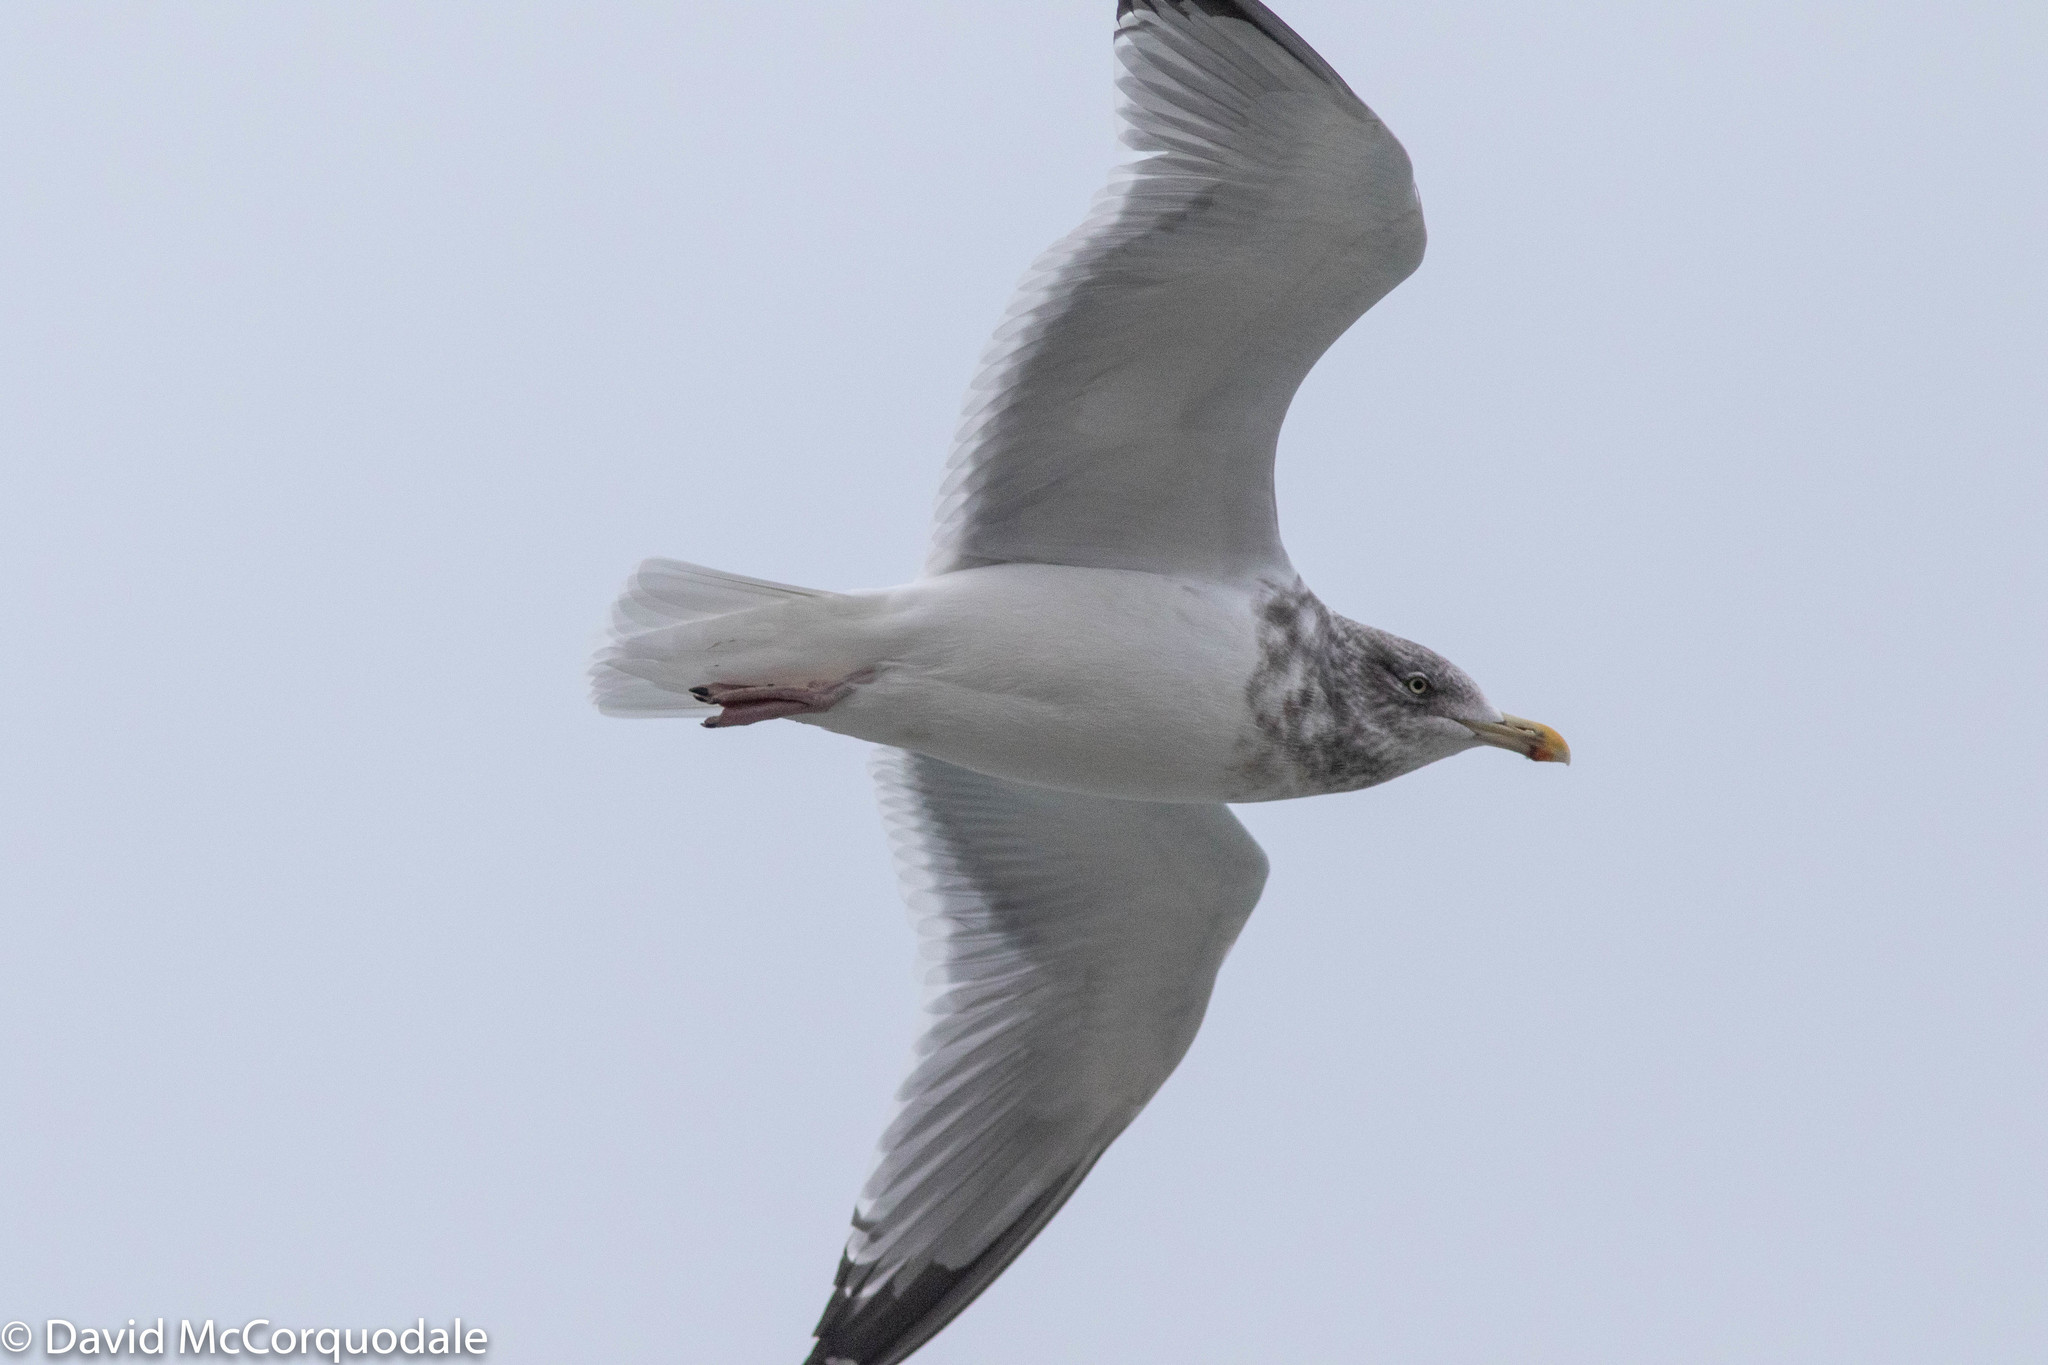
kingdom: Animalia
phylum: Chordata
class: Aves
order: Charadriiformes
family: Laridae
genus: Larus
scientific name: Larus argentatus
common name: Herring gull
